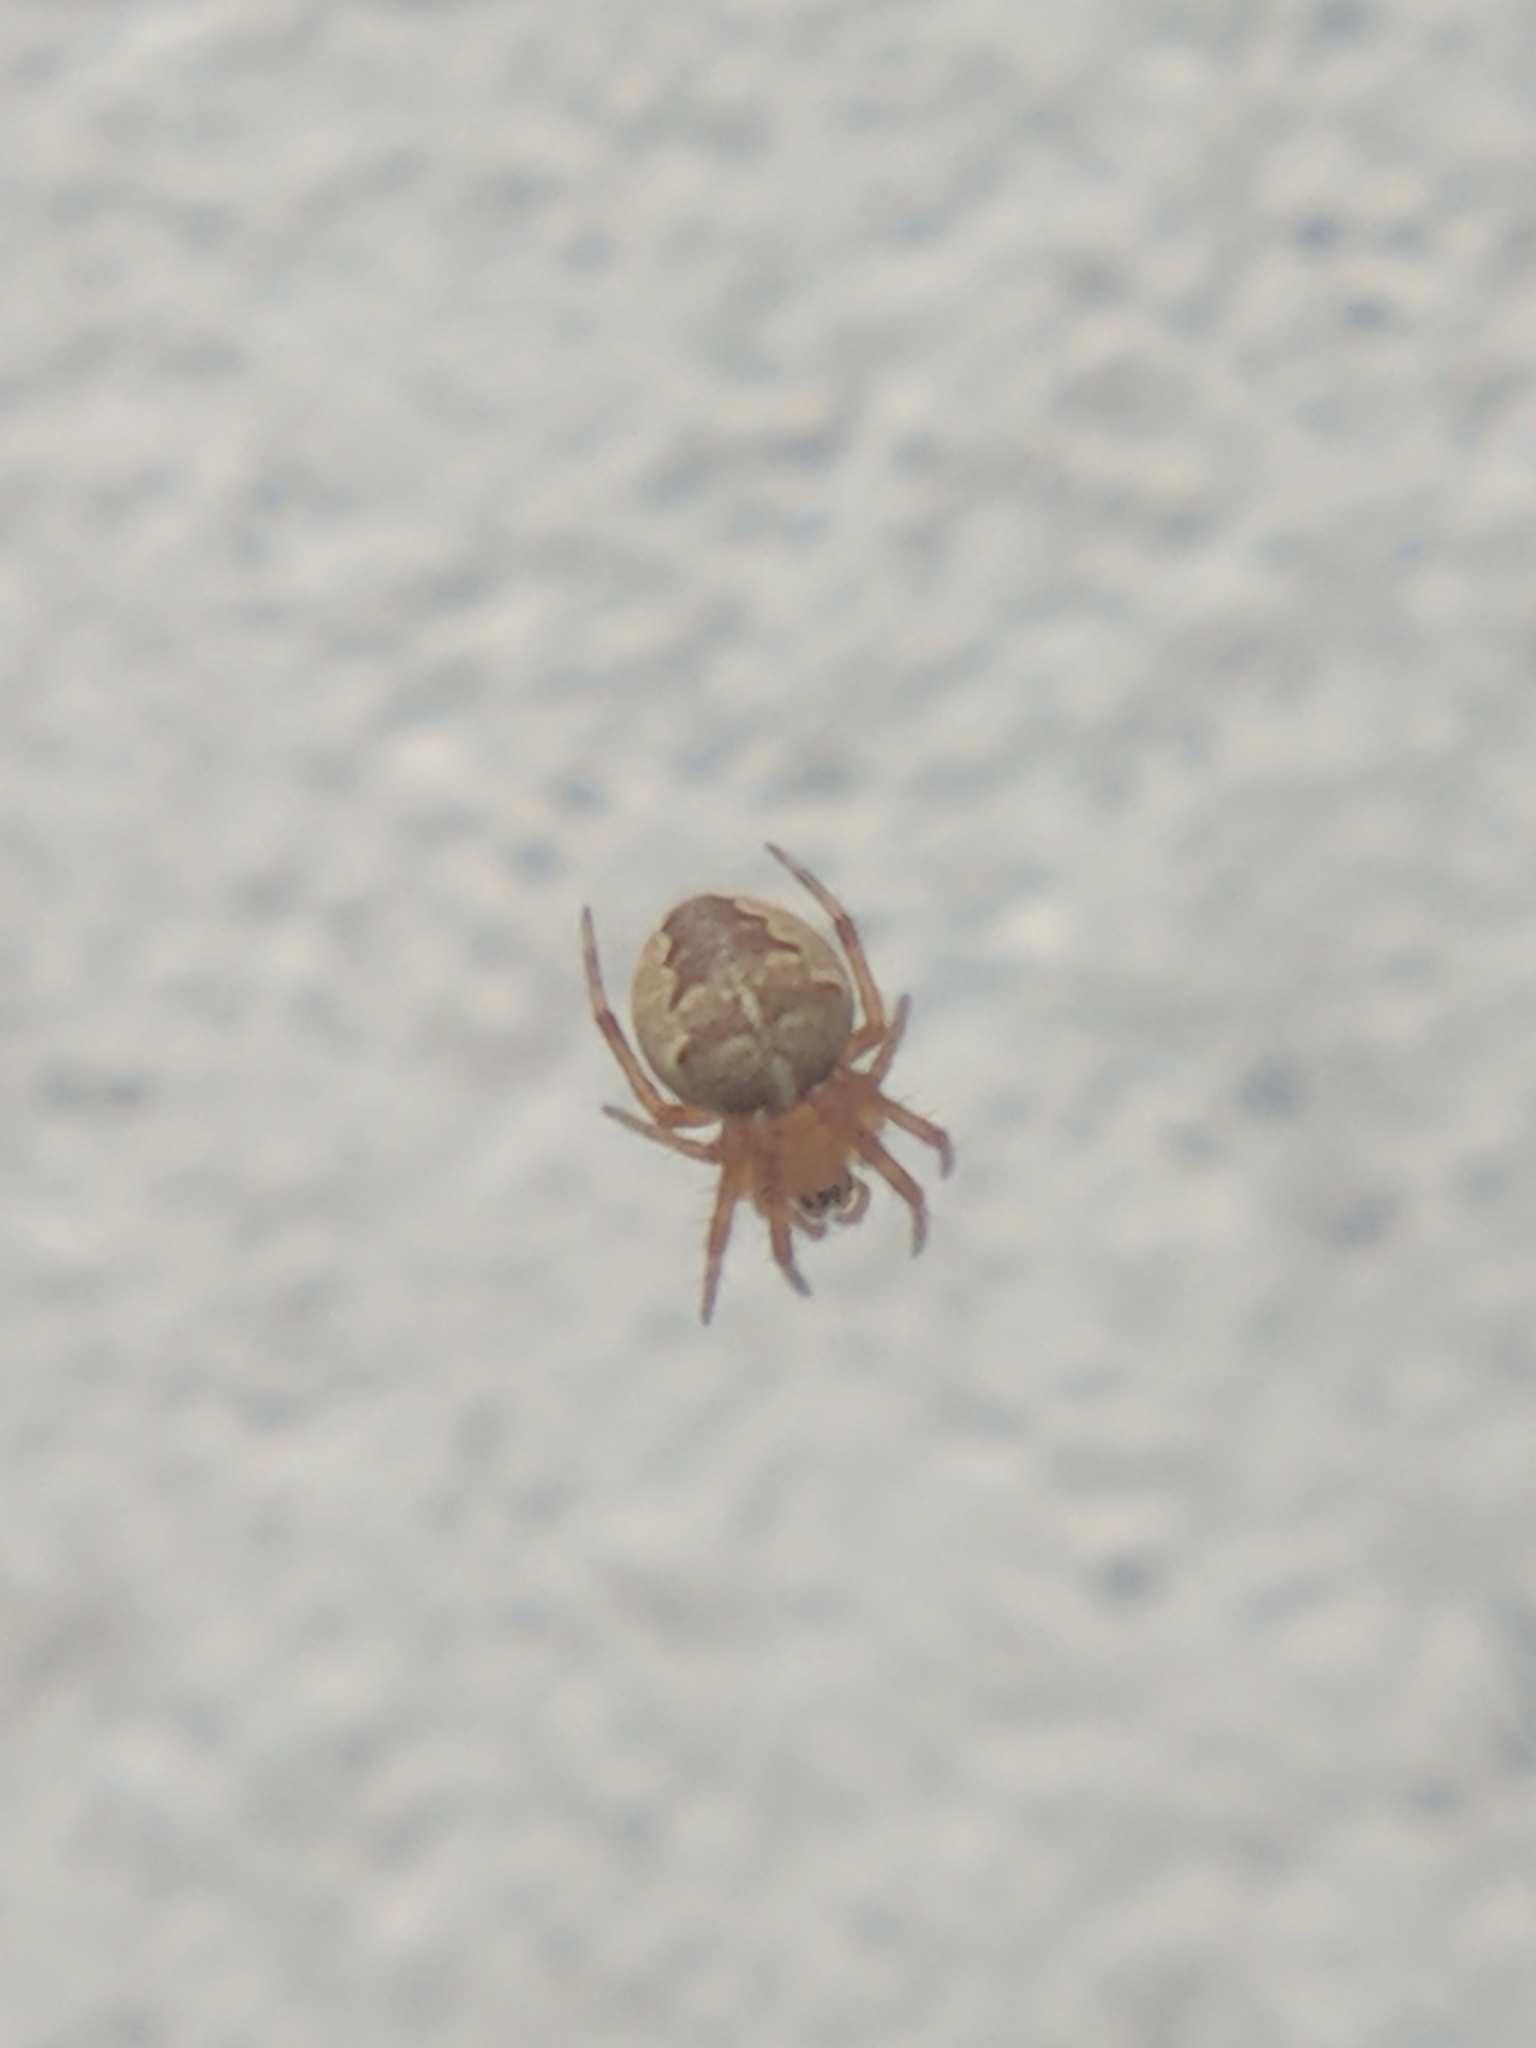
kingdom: Animalia
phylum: Arthropoda
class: Arachnida
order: Araneae
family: Araneidae
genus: Araneus
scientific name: Araneus diadematus
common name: Cross orbweaver
